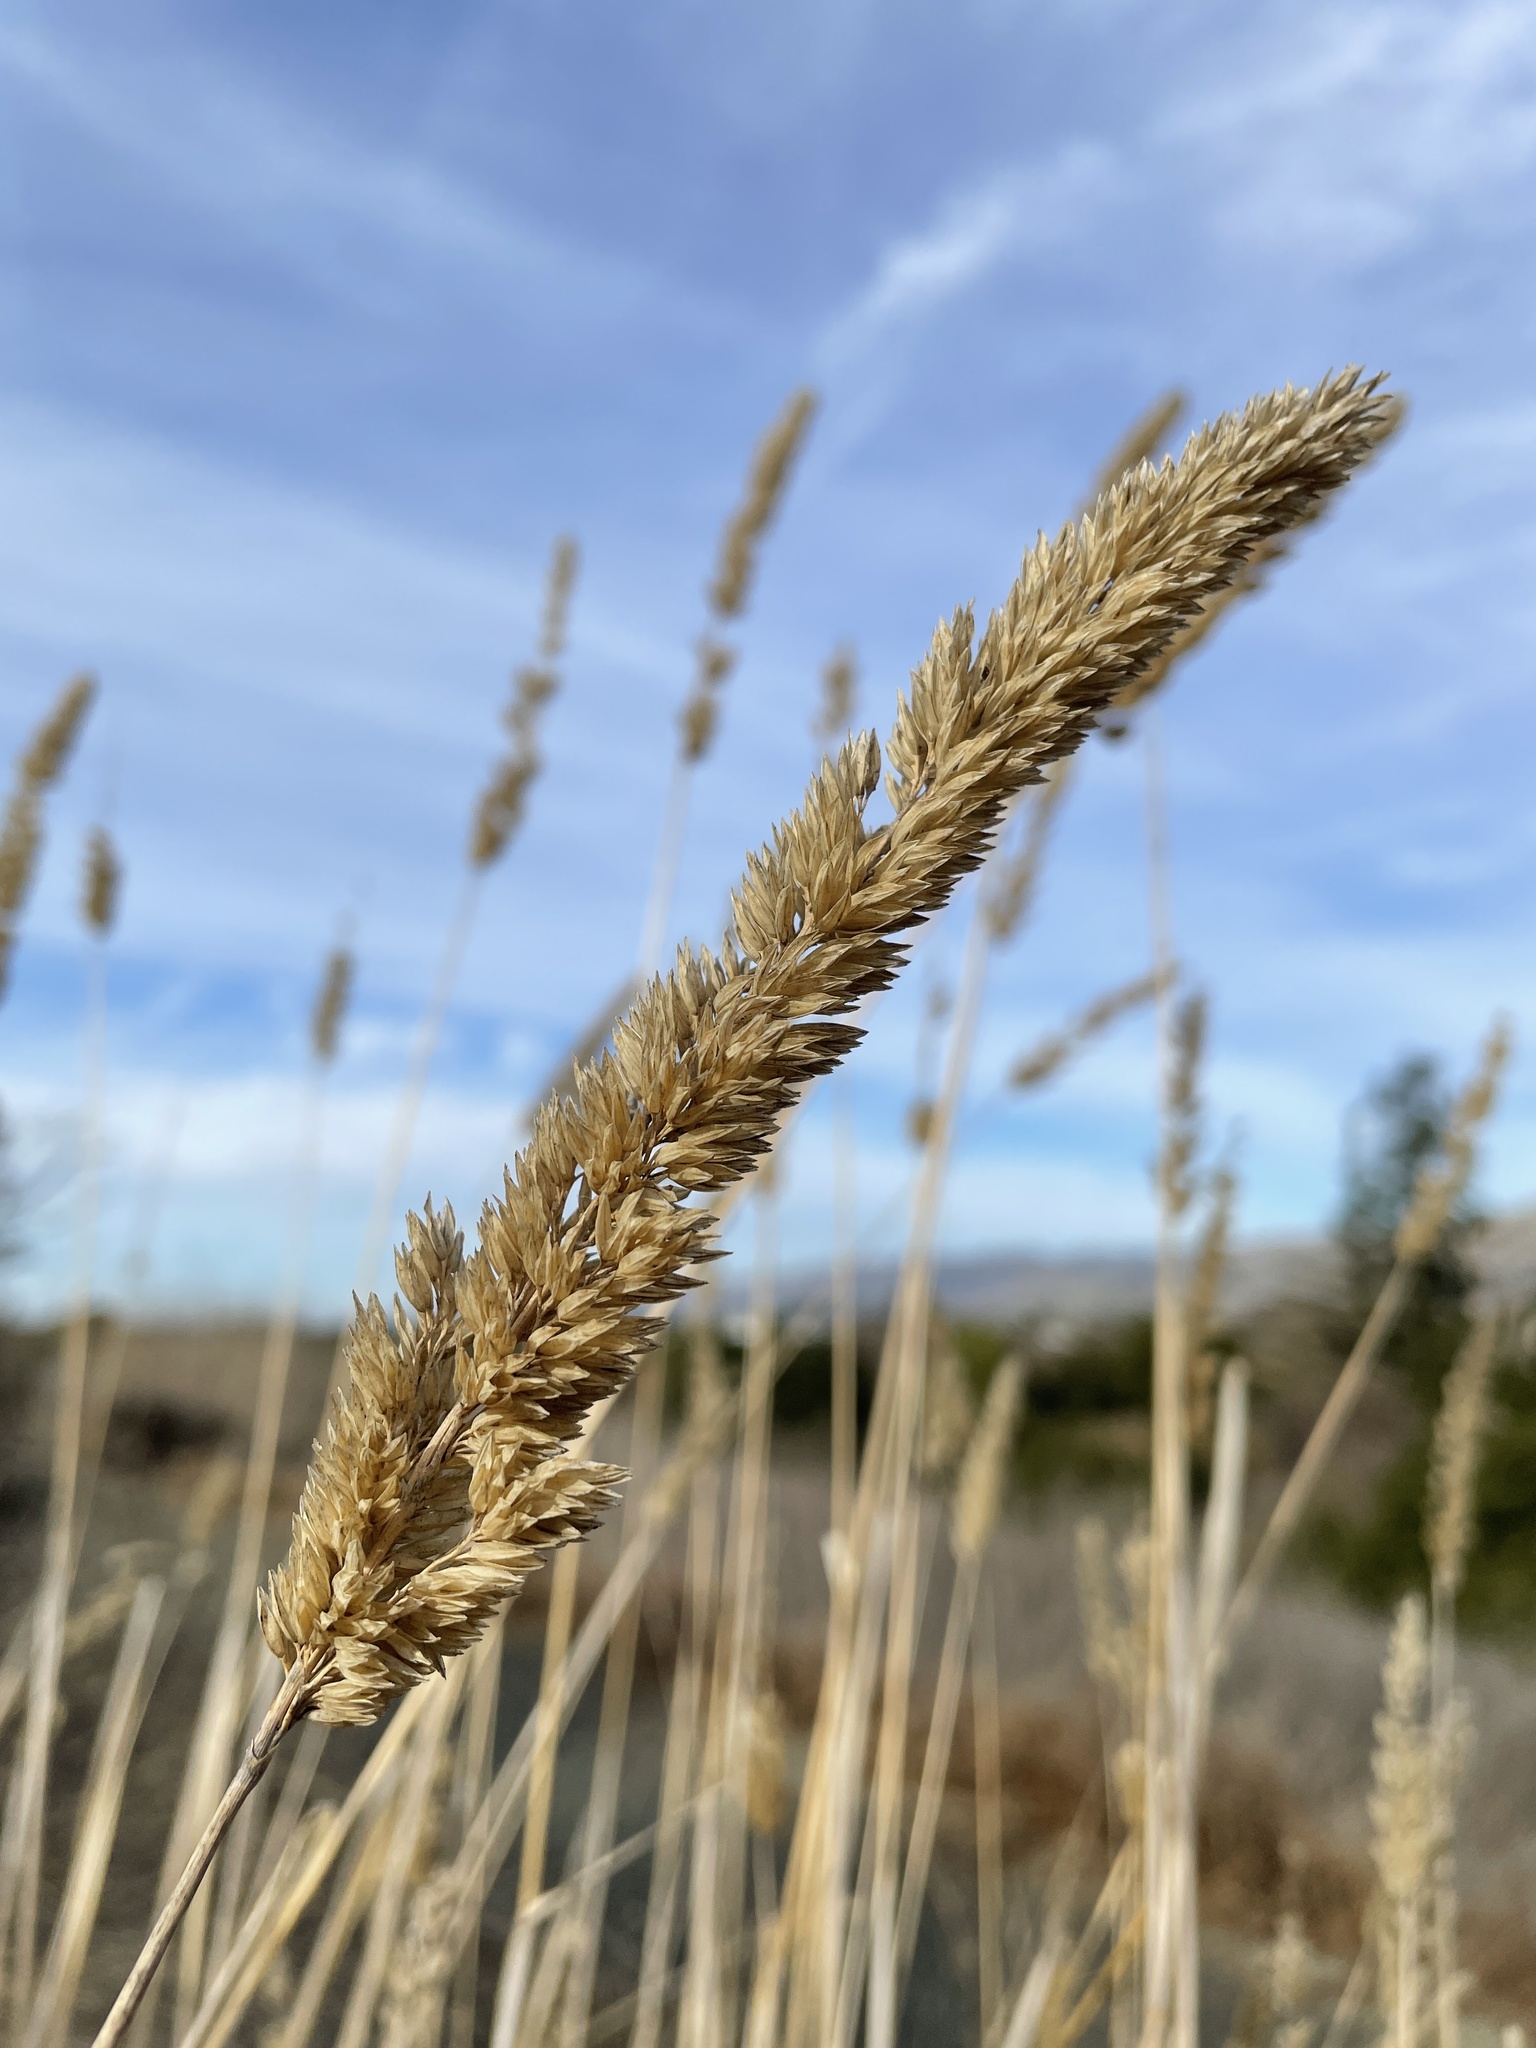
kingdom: Plantae
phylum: Tracheophyta
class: Liliopsida
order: Poales
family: Poaceae
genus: Phalaris
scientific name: Phalaris aquatica
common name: Bulbous canary-grass
